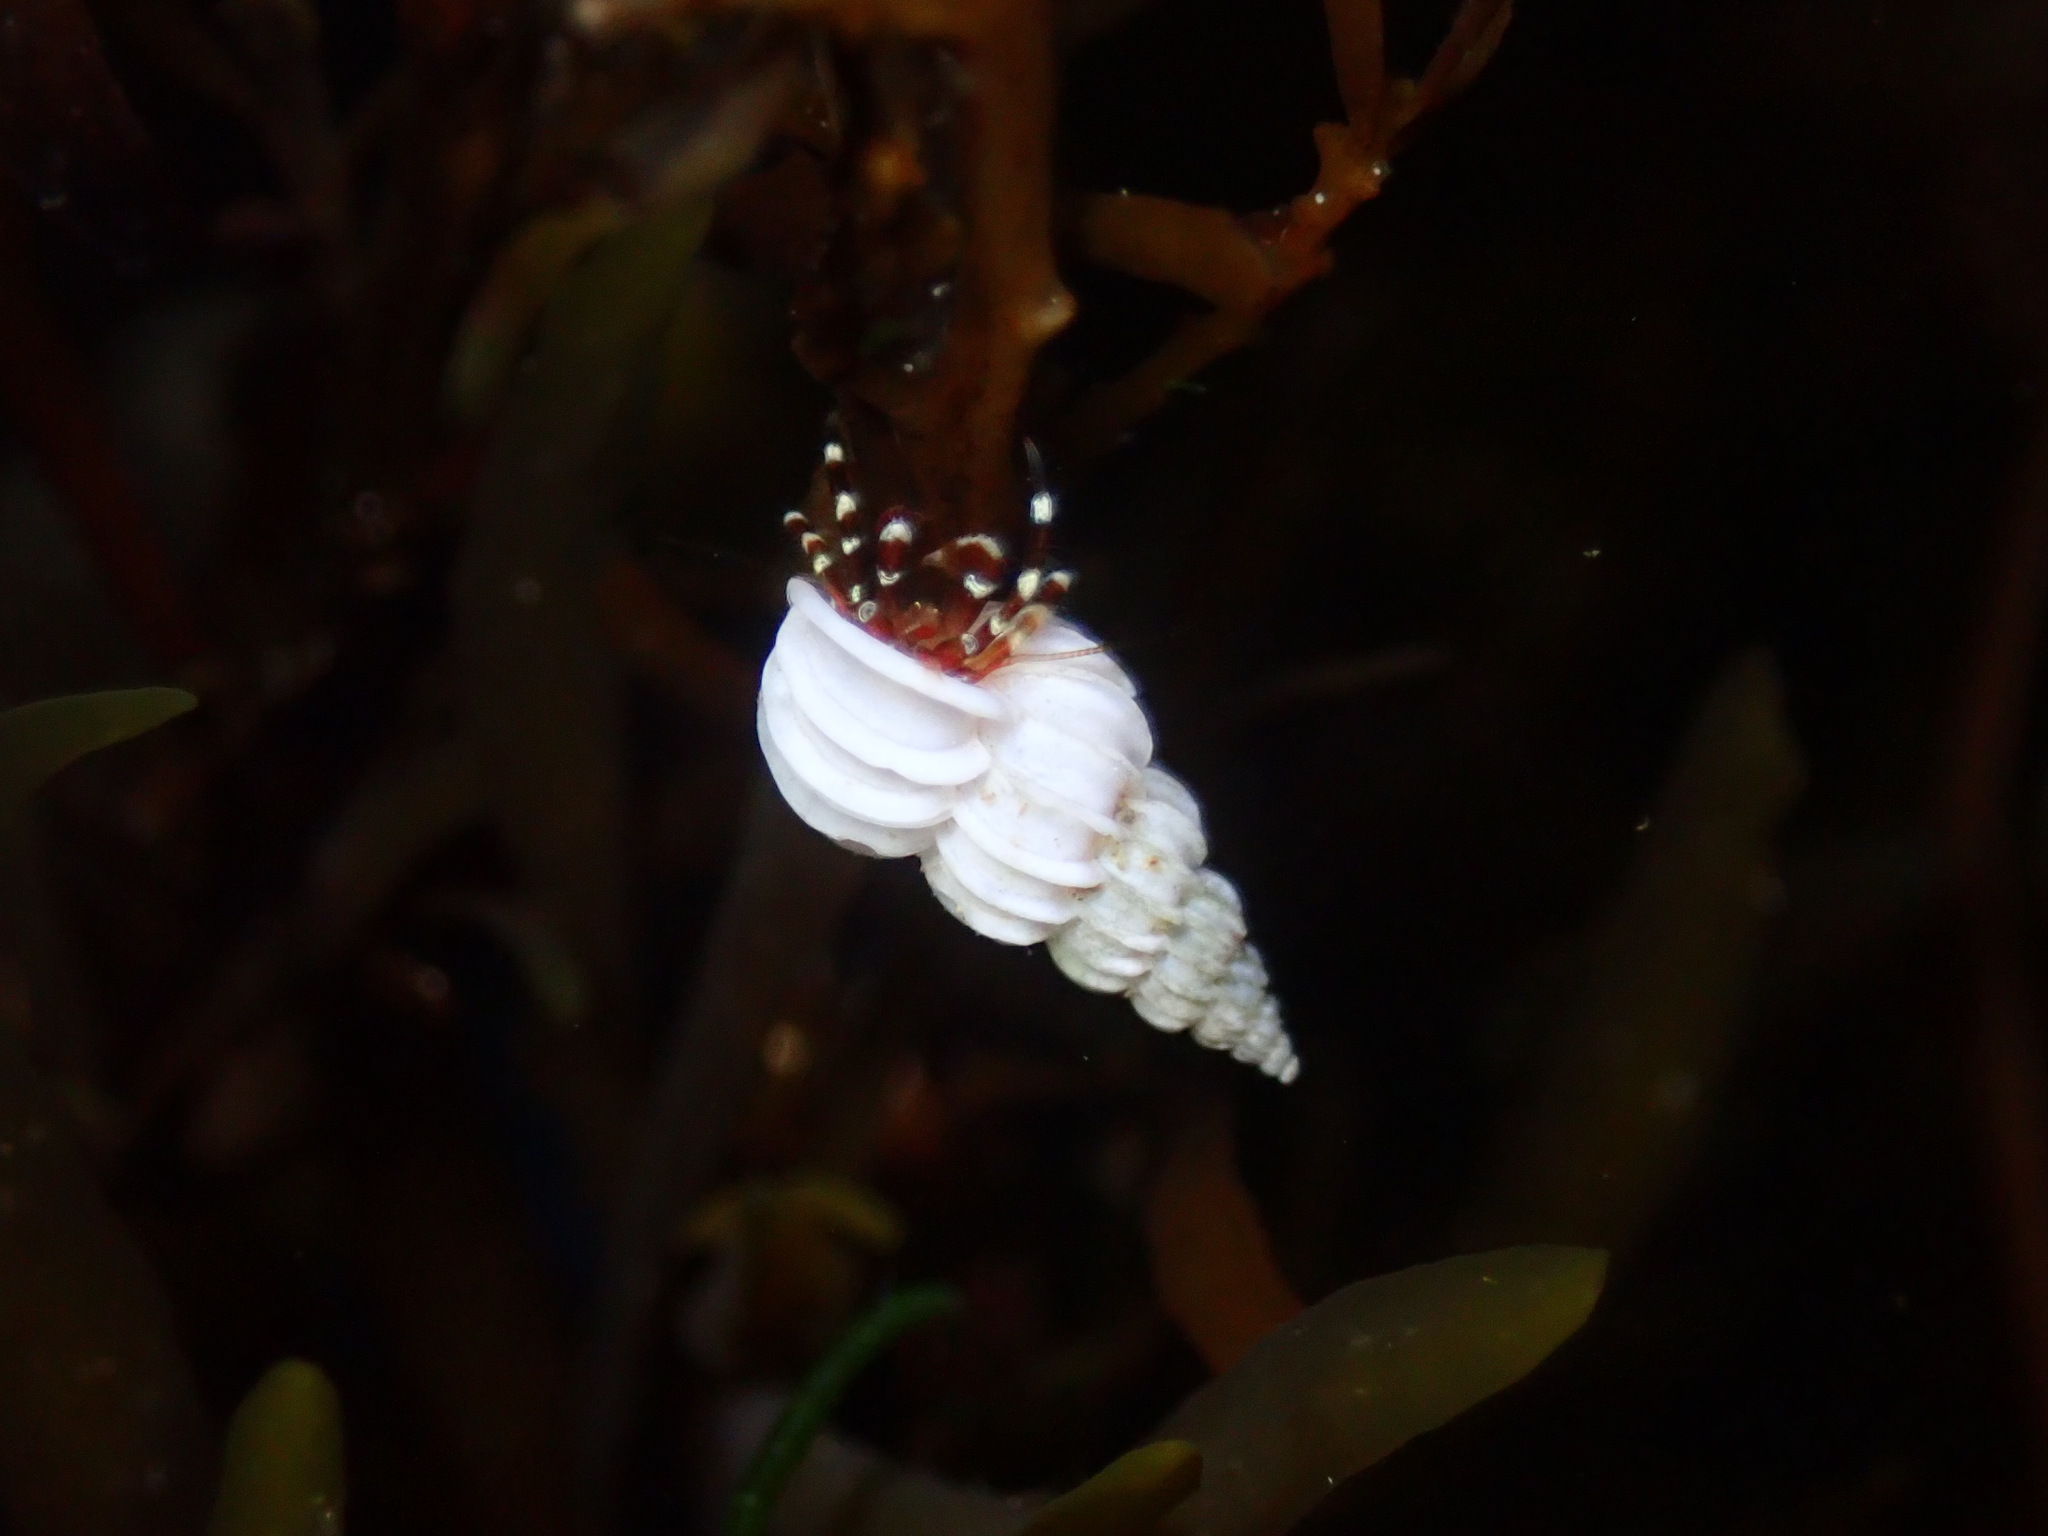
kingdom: Animalia
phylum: Mollusca
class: Gastropoda
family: Epitoniidae
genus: Epitonium
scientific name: Epitonium tinctum
